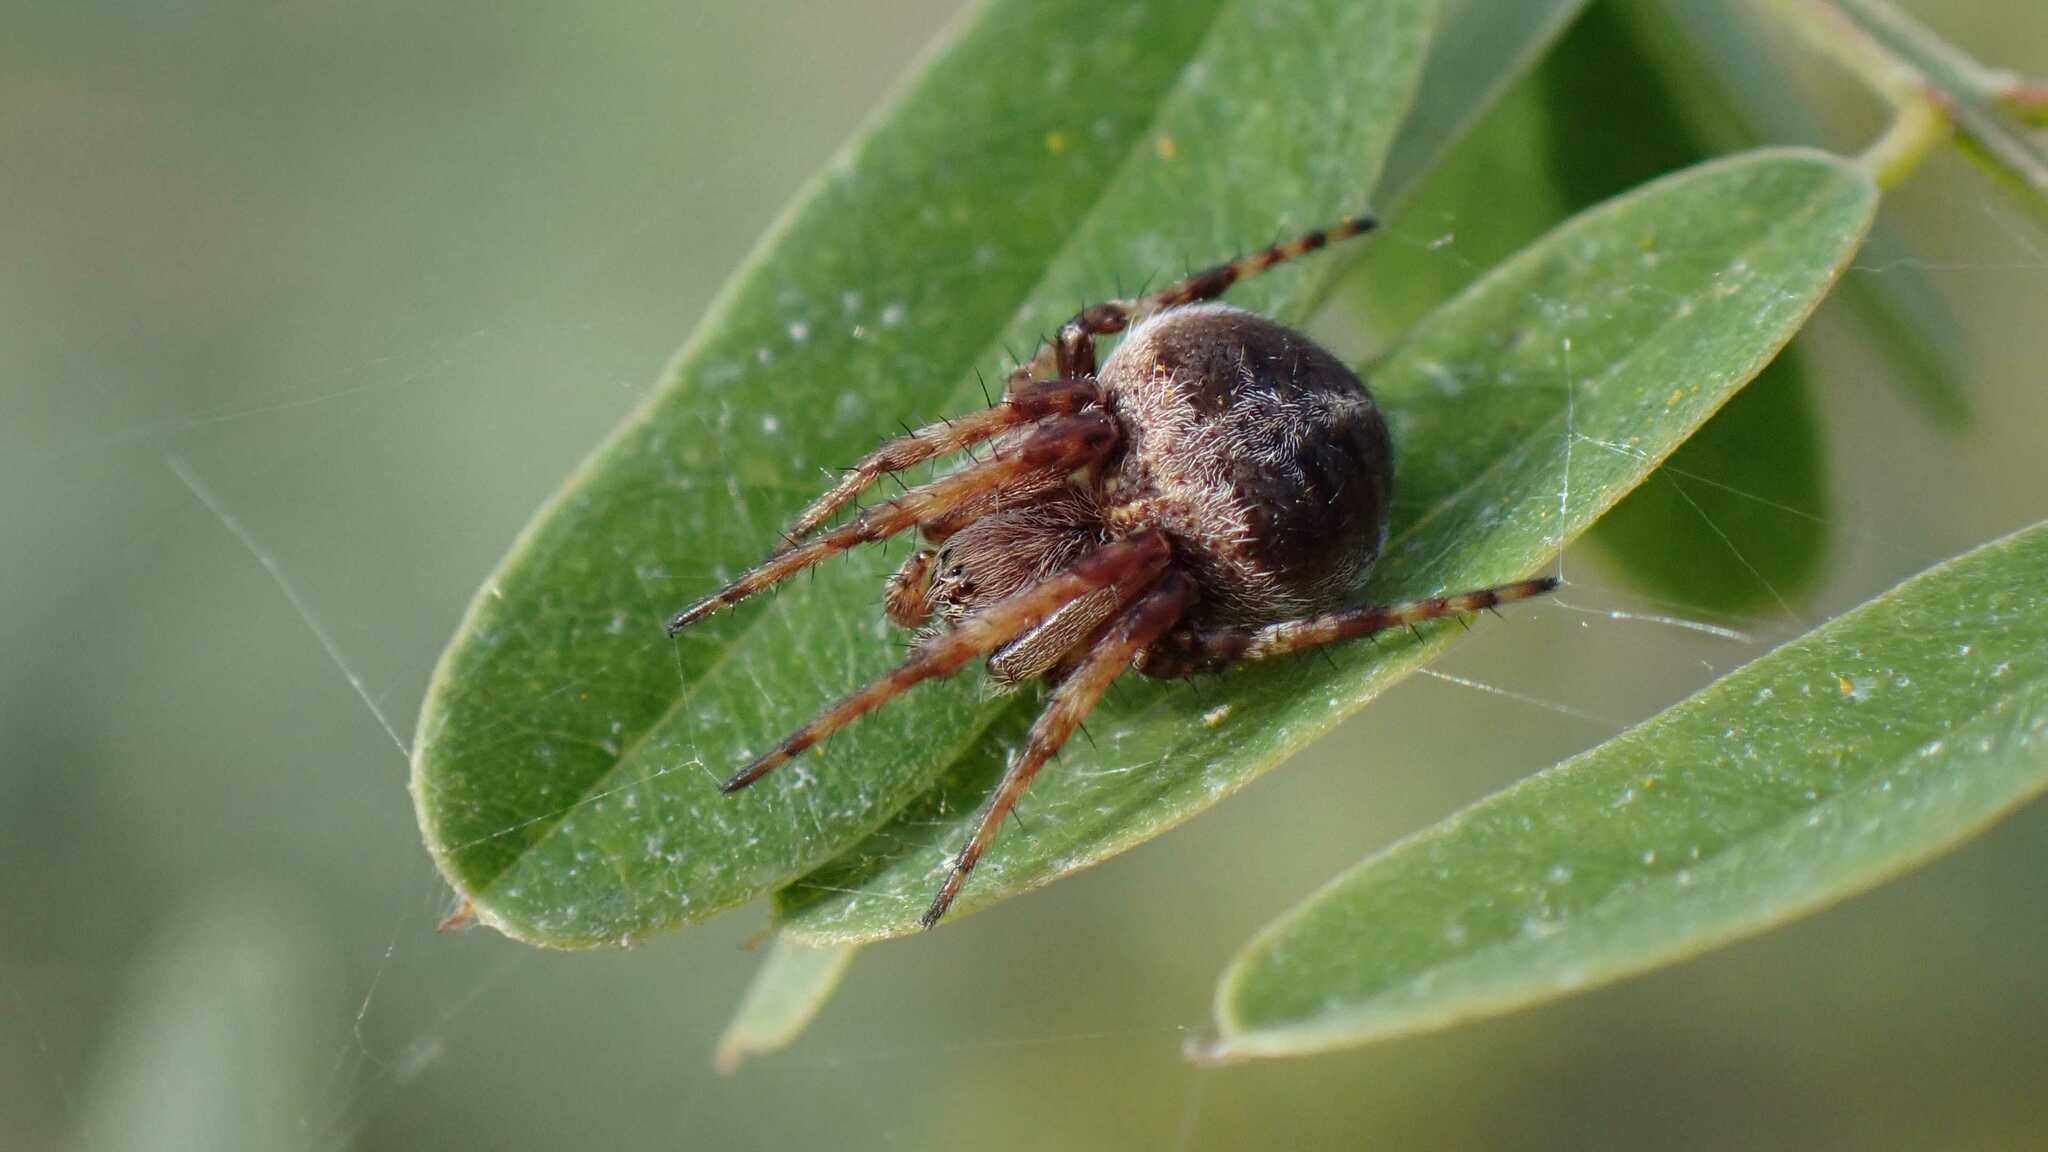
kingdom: Animalia
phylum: Arthropoda
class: Arachnida
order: Araneae
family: Araneidae
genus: Agalenatea
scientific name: Agalenatea redii
